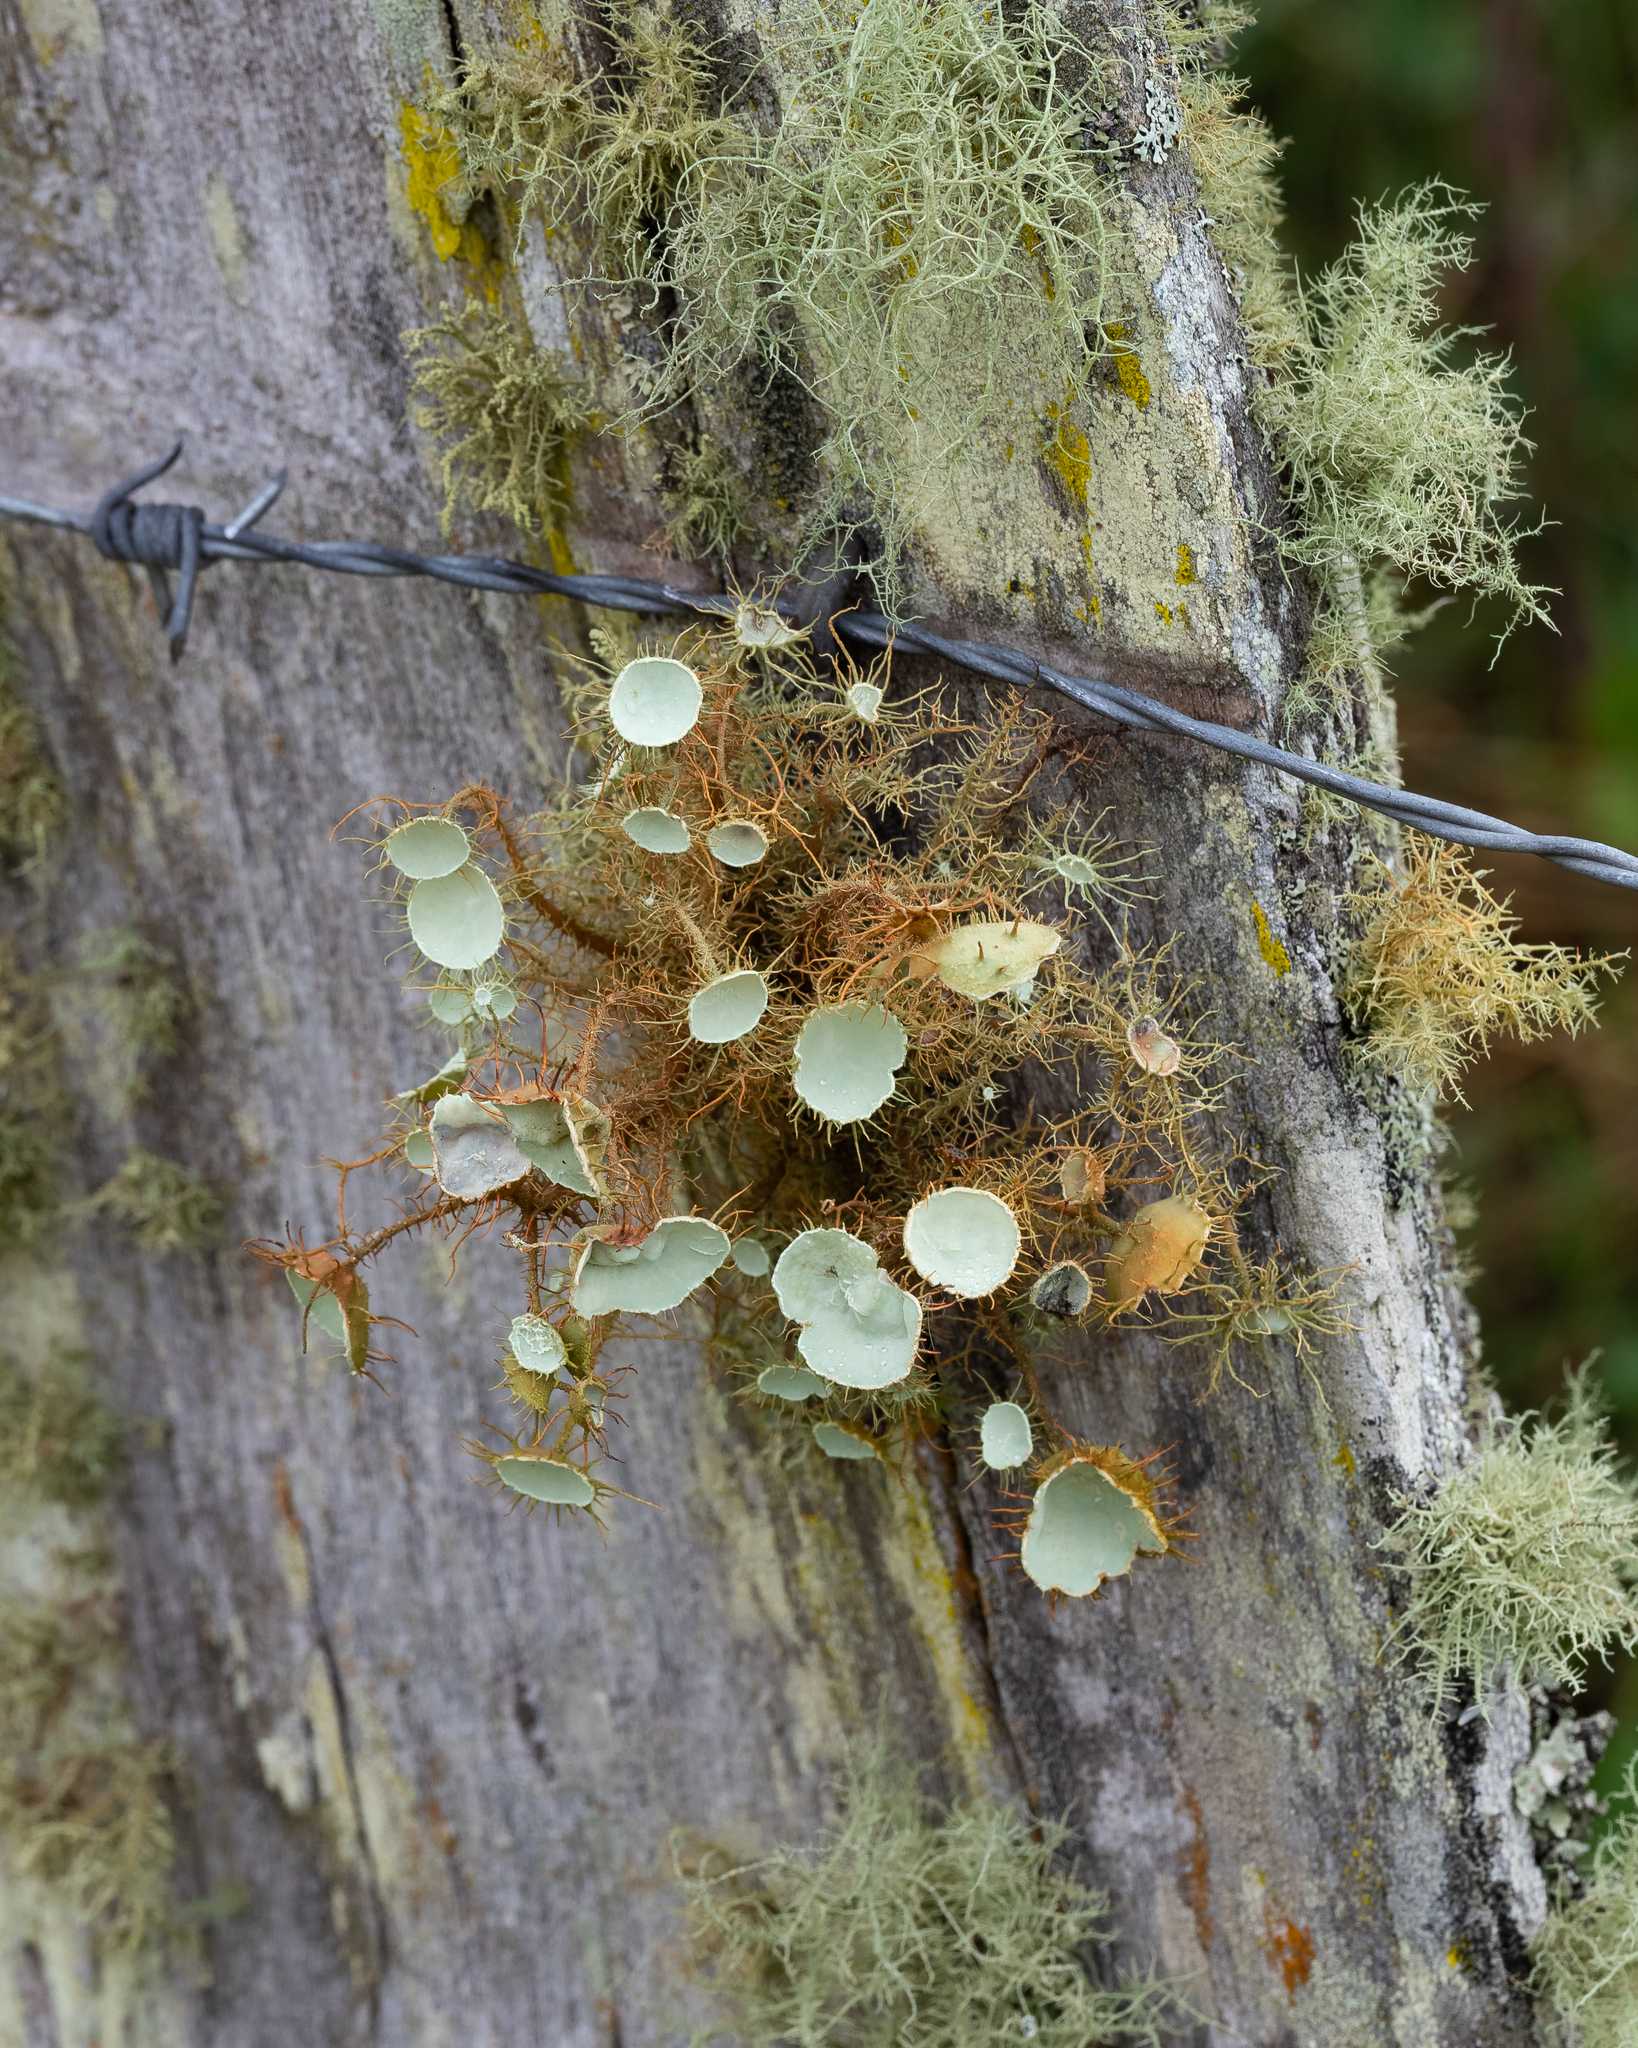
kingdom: Fungi
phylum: Ascomycota
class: Lecanoromycetes
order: Lecanorales
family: Parmeliaceae
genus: Usnea
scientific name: Usnea erinacea
